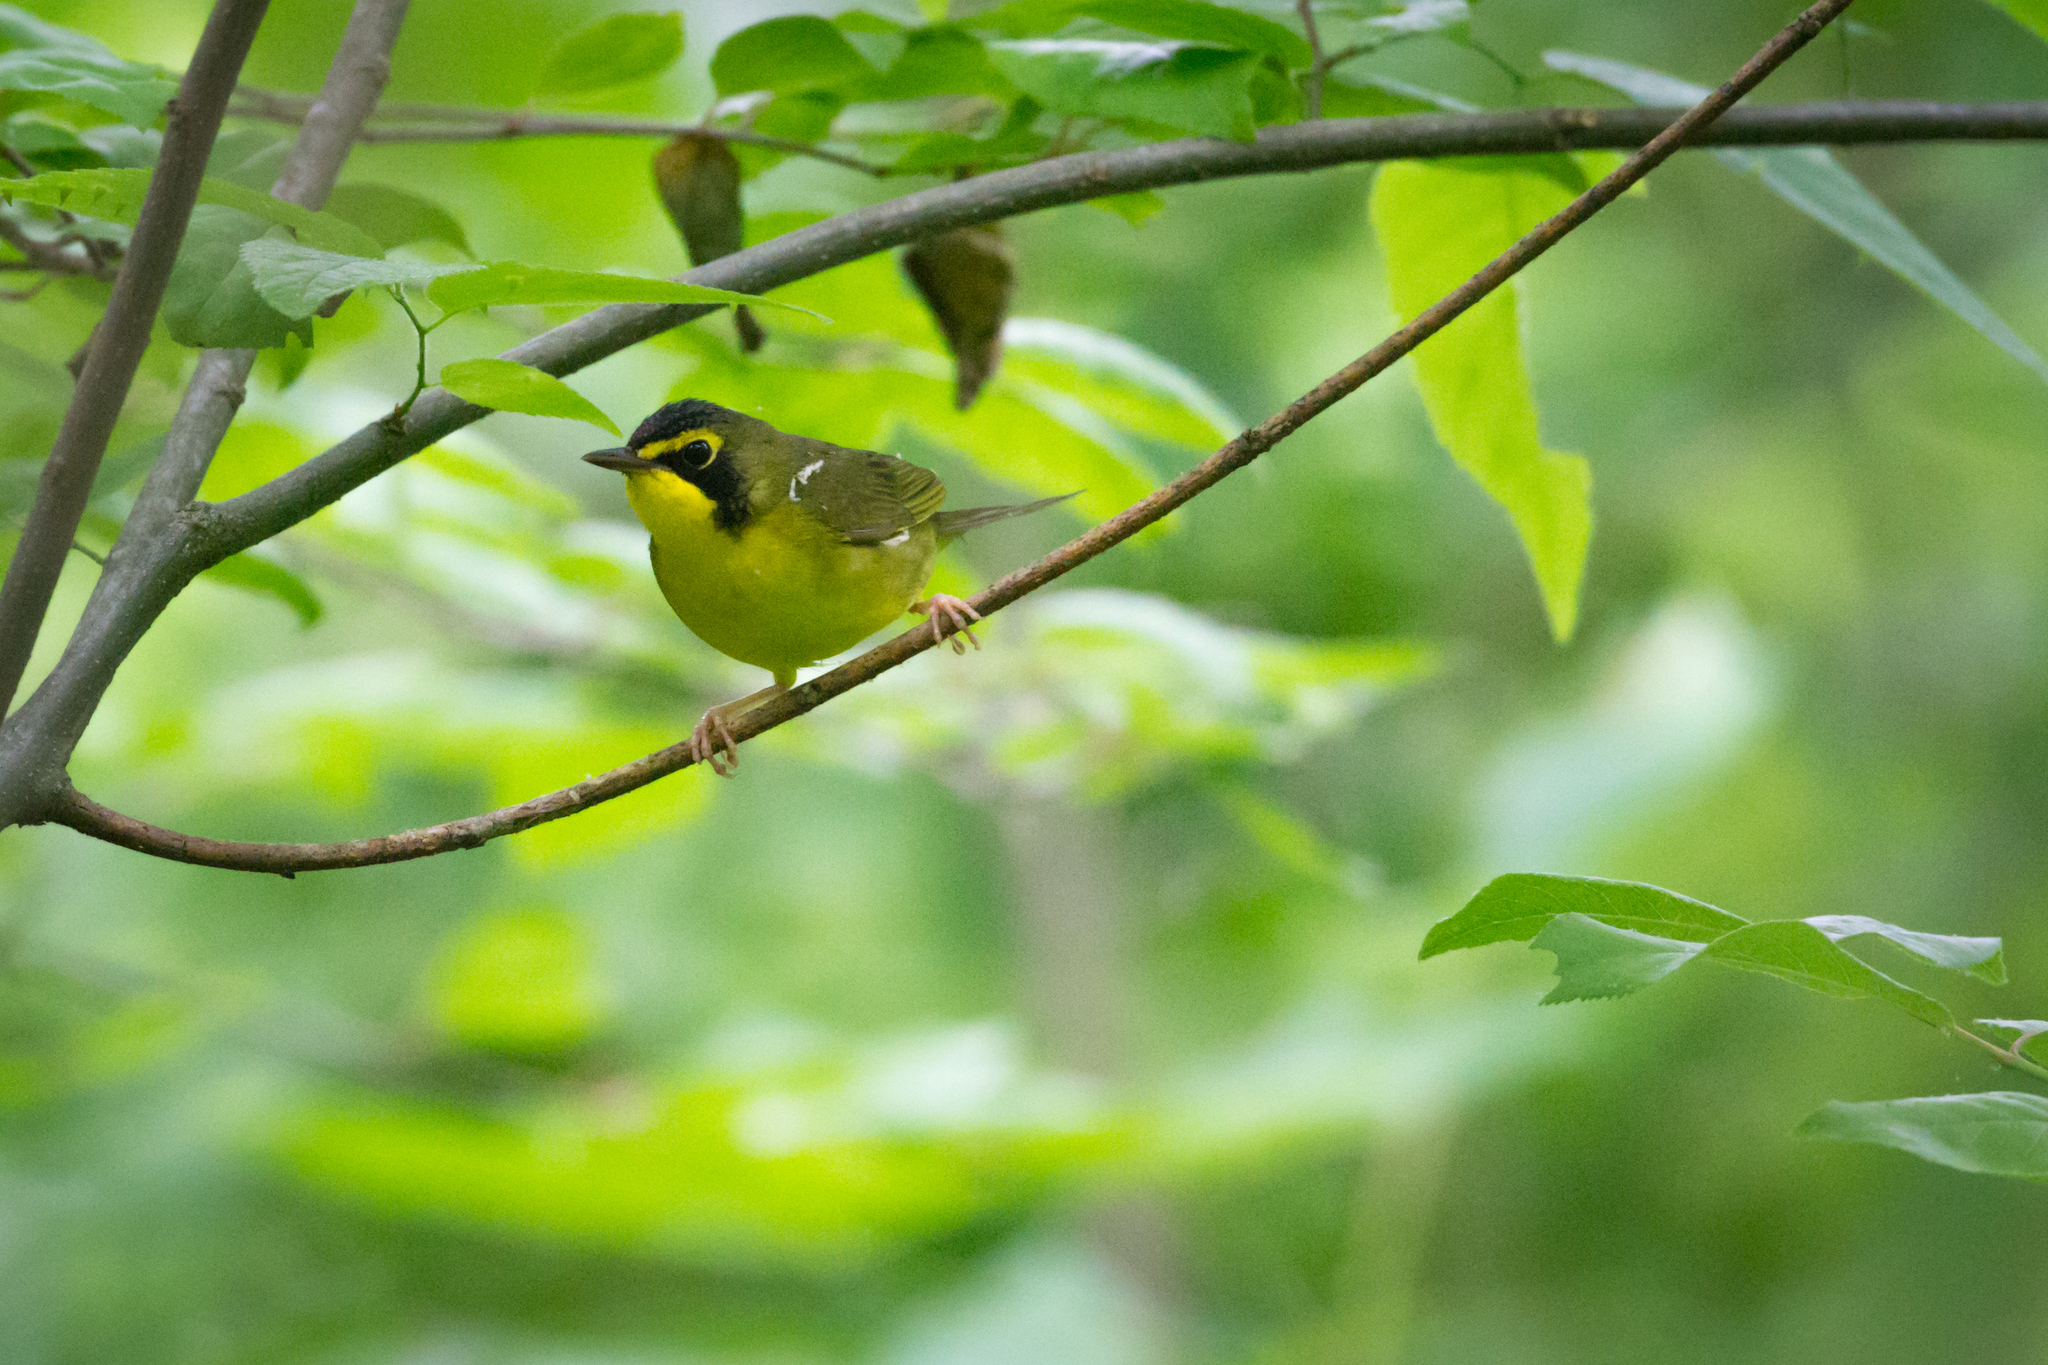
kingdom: Animalia
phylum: Chordata
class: Aves
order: Passeriformes
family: Parulidae
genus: Geothlypis
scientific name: Geothlypis formosa
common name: Kentucky warbler
